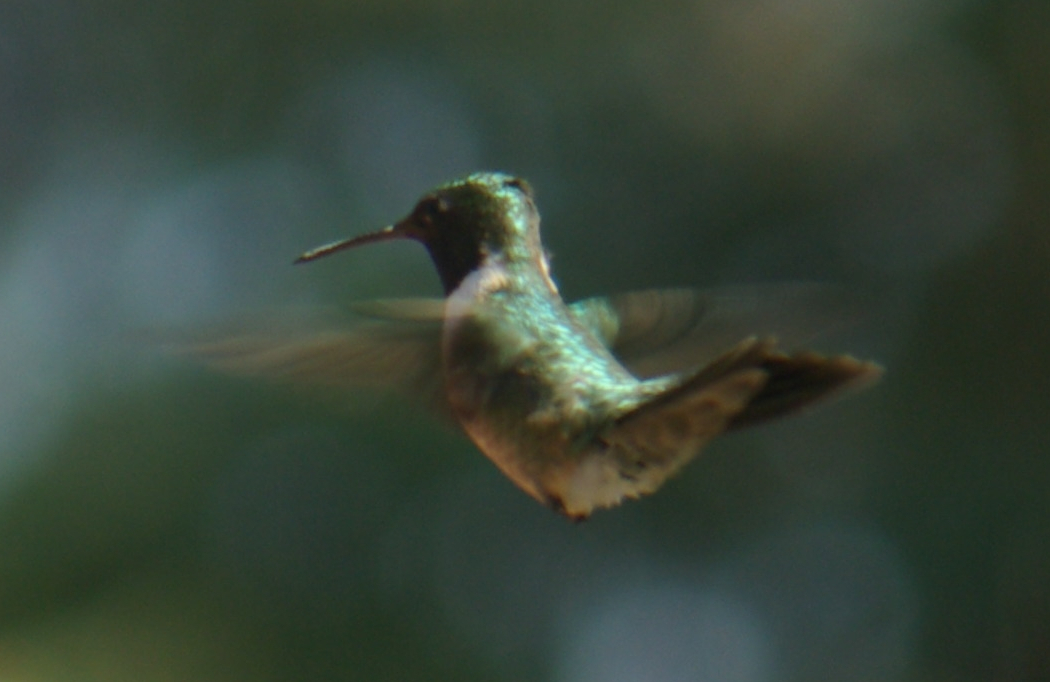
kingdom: Animalia
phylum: Chordata
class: Aves
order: Apodiformes
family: Trochilidae
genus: Archilochus
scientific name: Archilochus colubris
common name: Ruby-throated hummingbird
